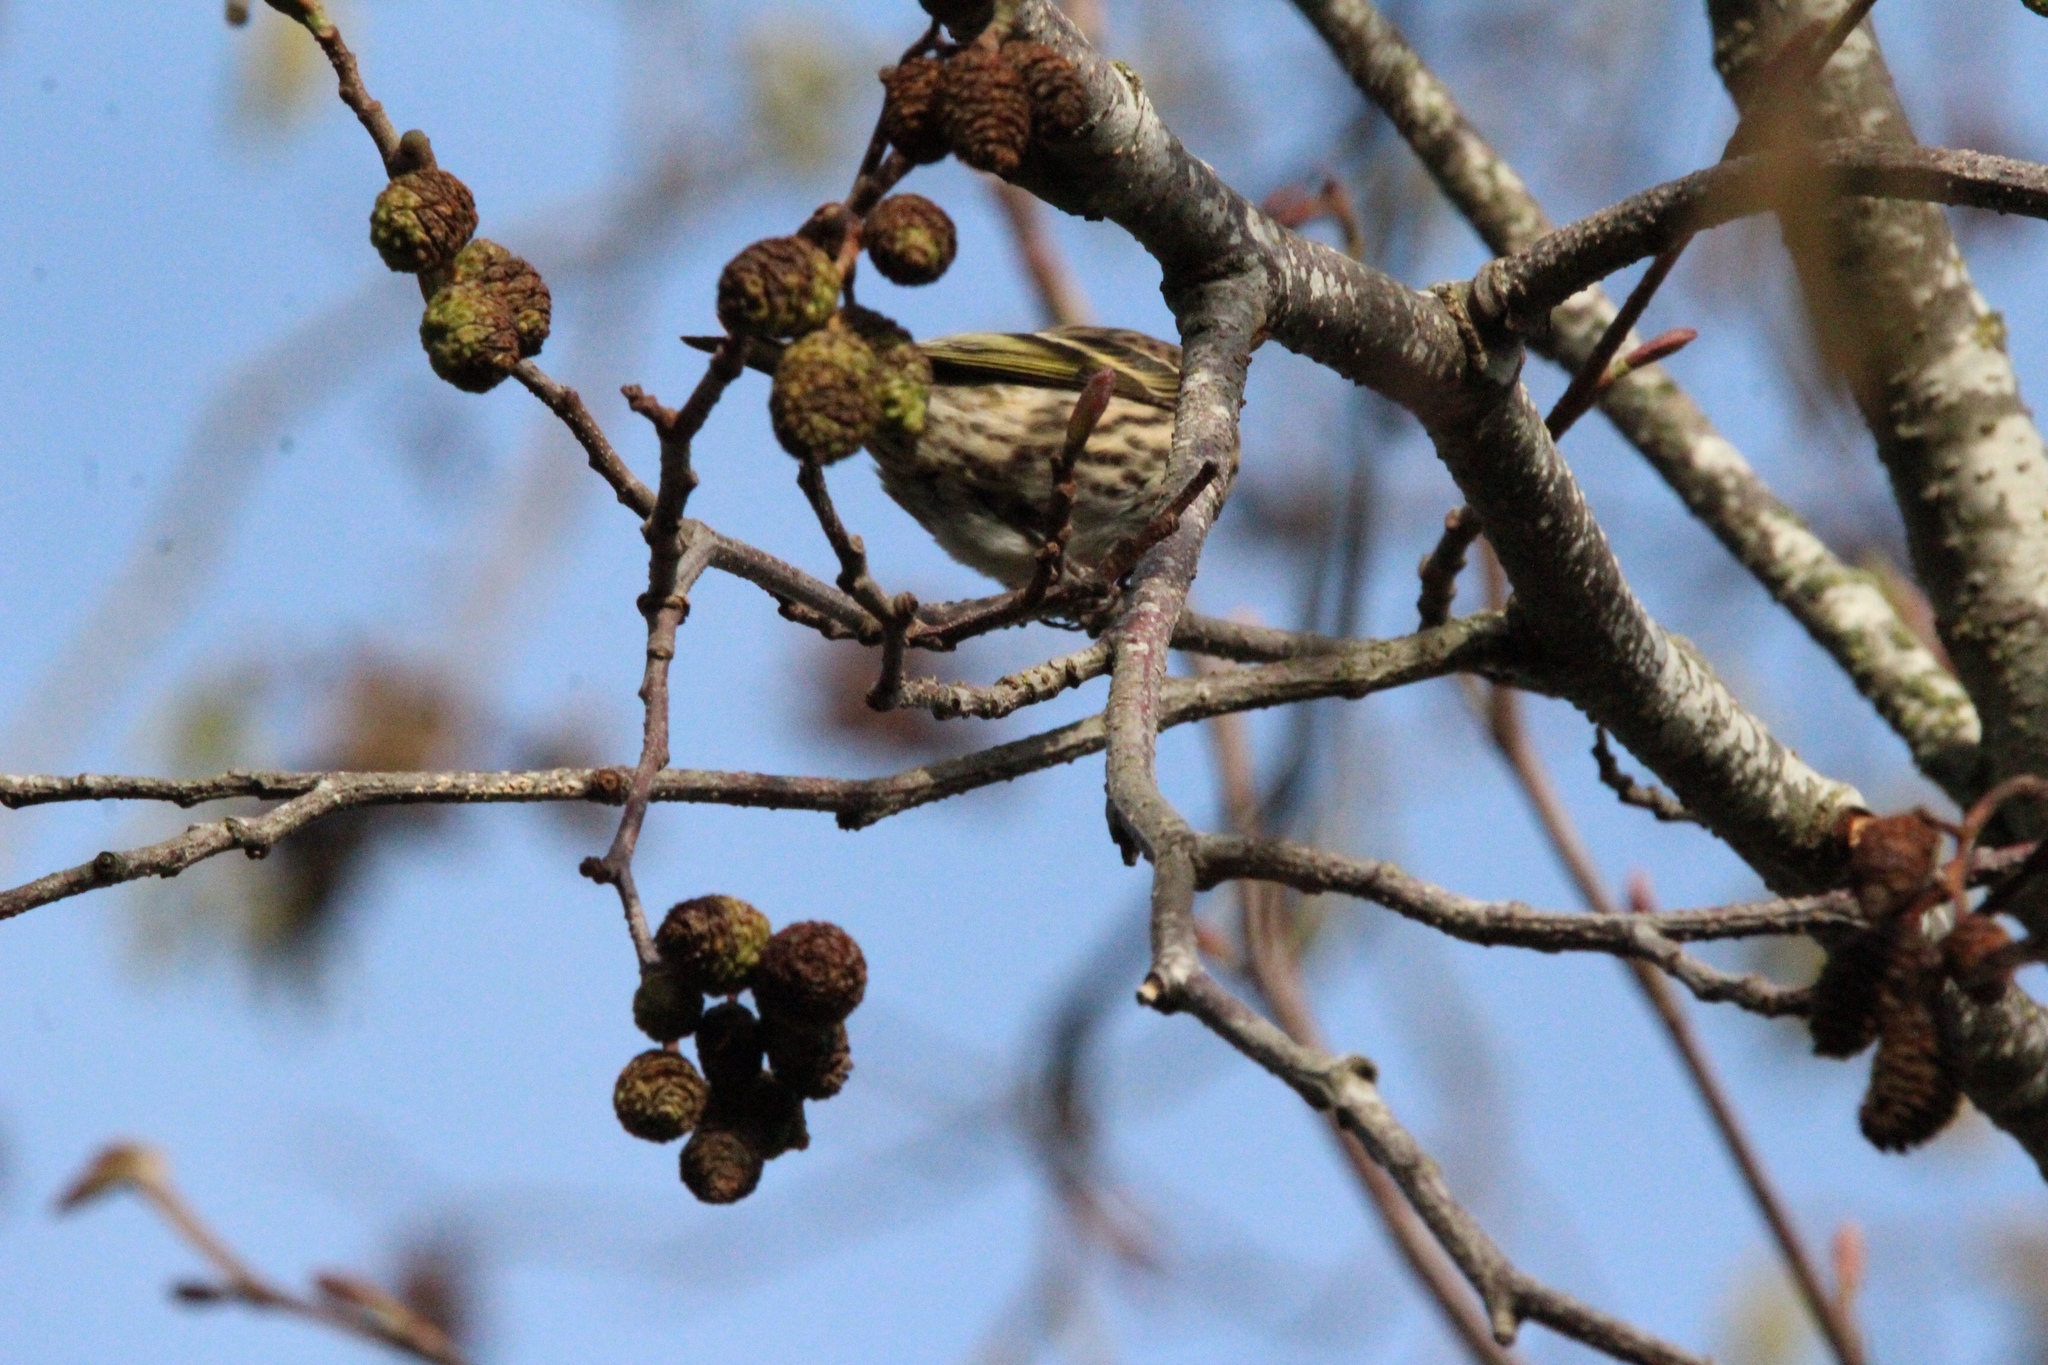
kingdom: Animalia
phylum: Chordata
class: Aves
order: Passeriformes
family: Fringillidae
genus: Spinus
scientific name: Spinus pinus
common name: Pine siskin
